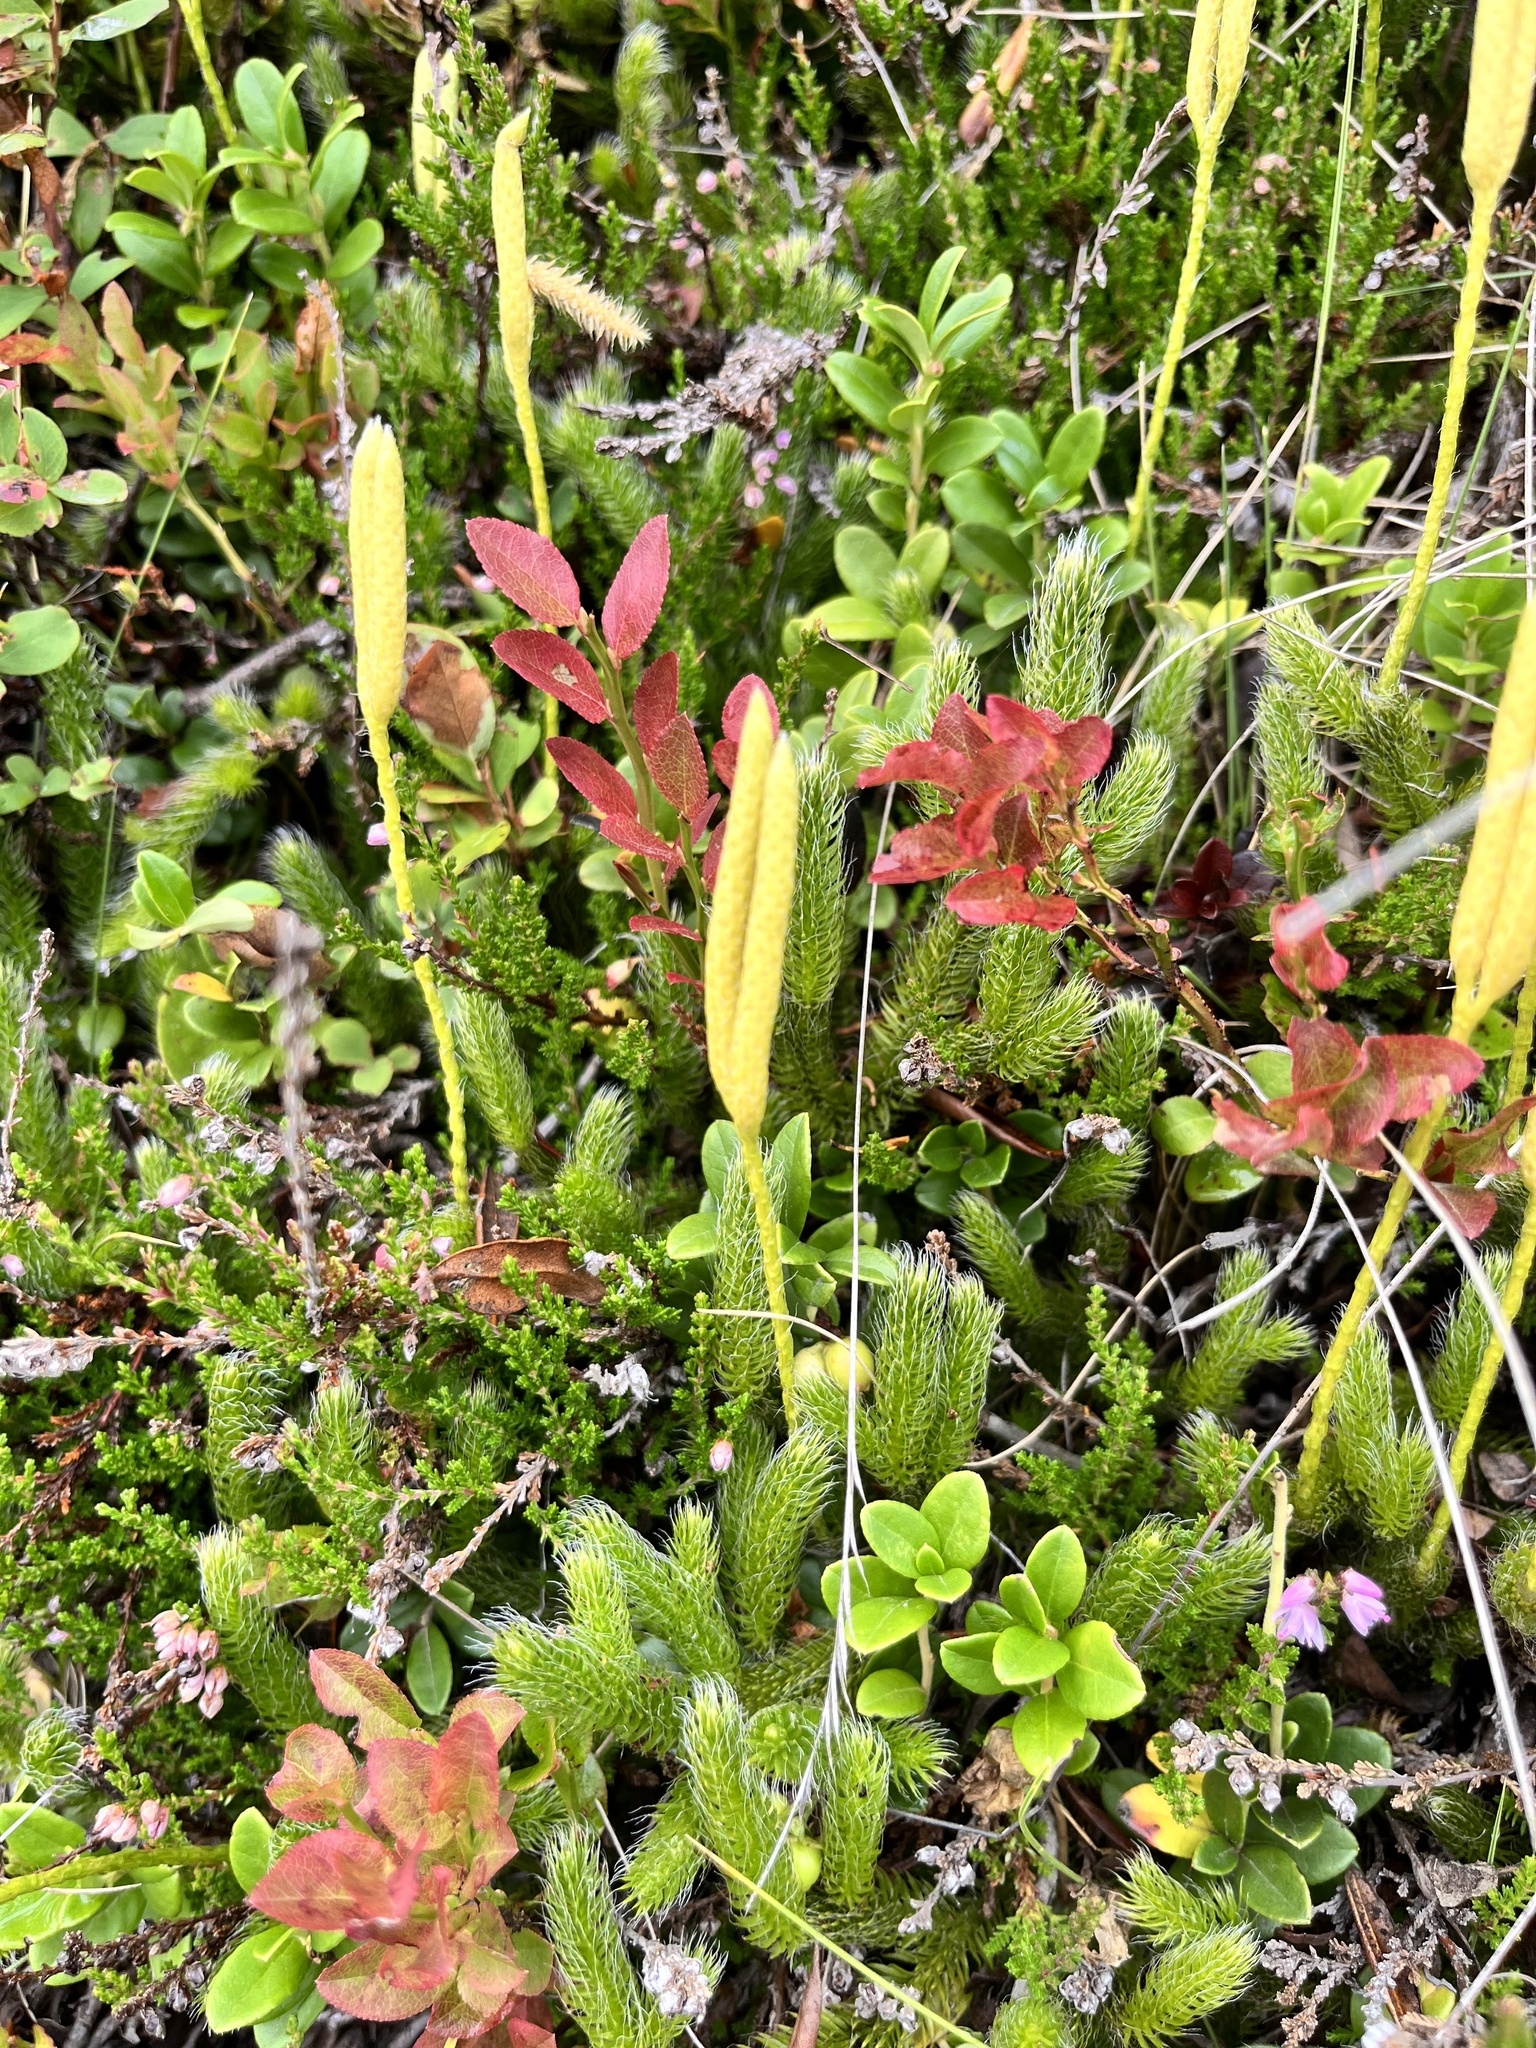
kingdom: Plantae
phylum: Tracheophyta
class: Lycopodiopsida
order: Lycopodiales
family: Lycopodiaceae
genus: Lycopodium
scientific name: Lycopodium clavatum
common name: Stag's-horn clubmoss
